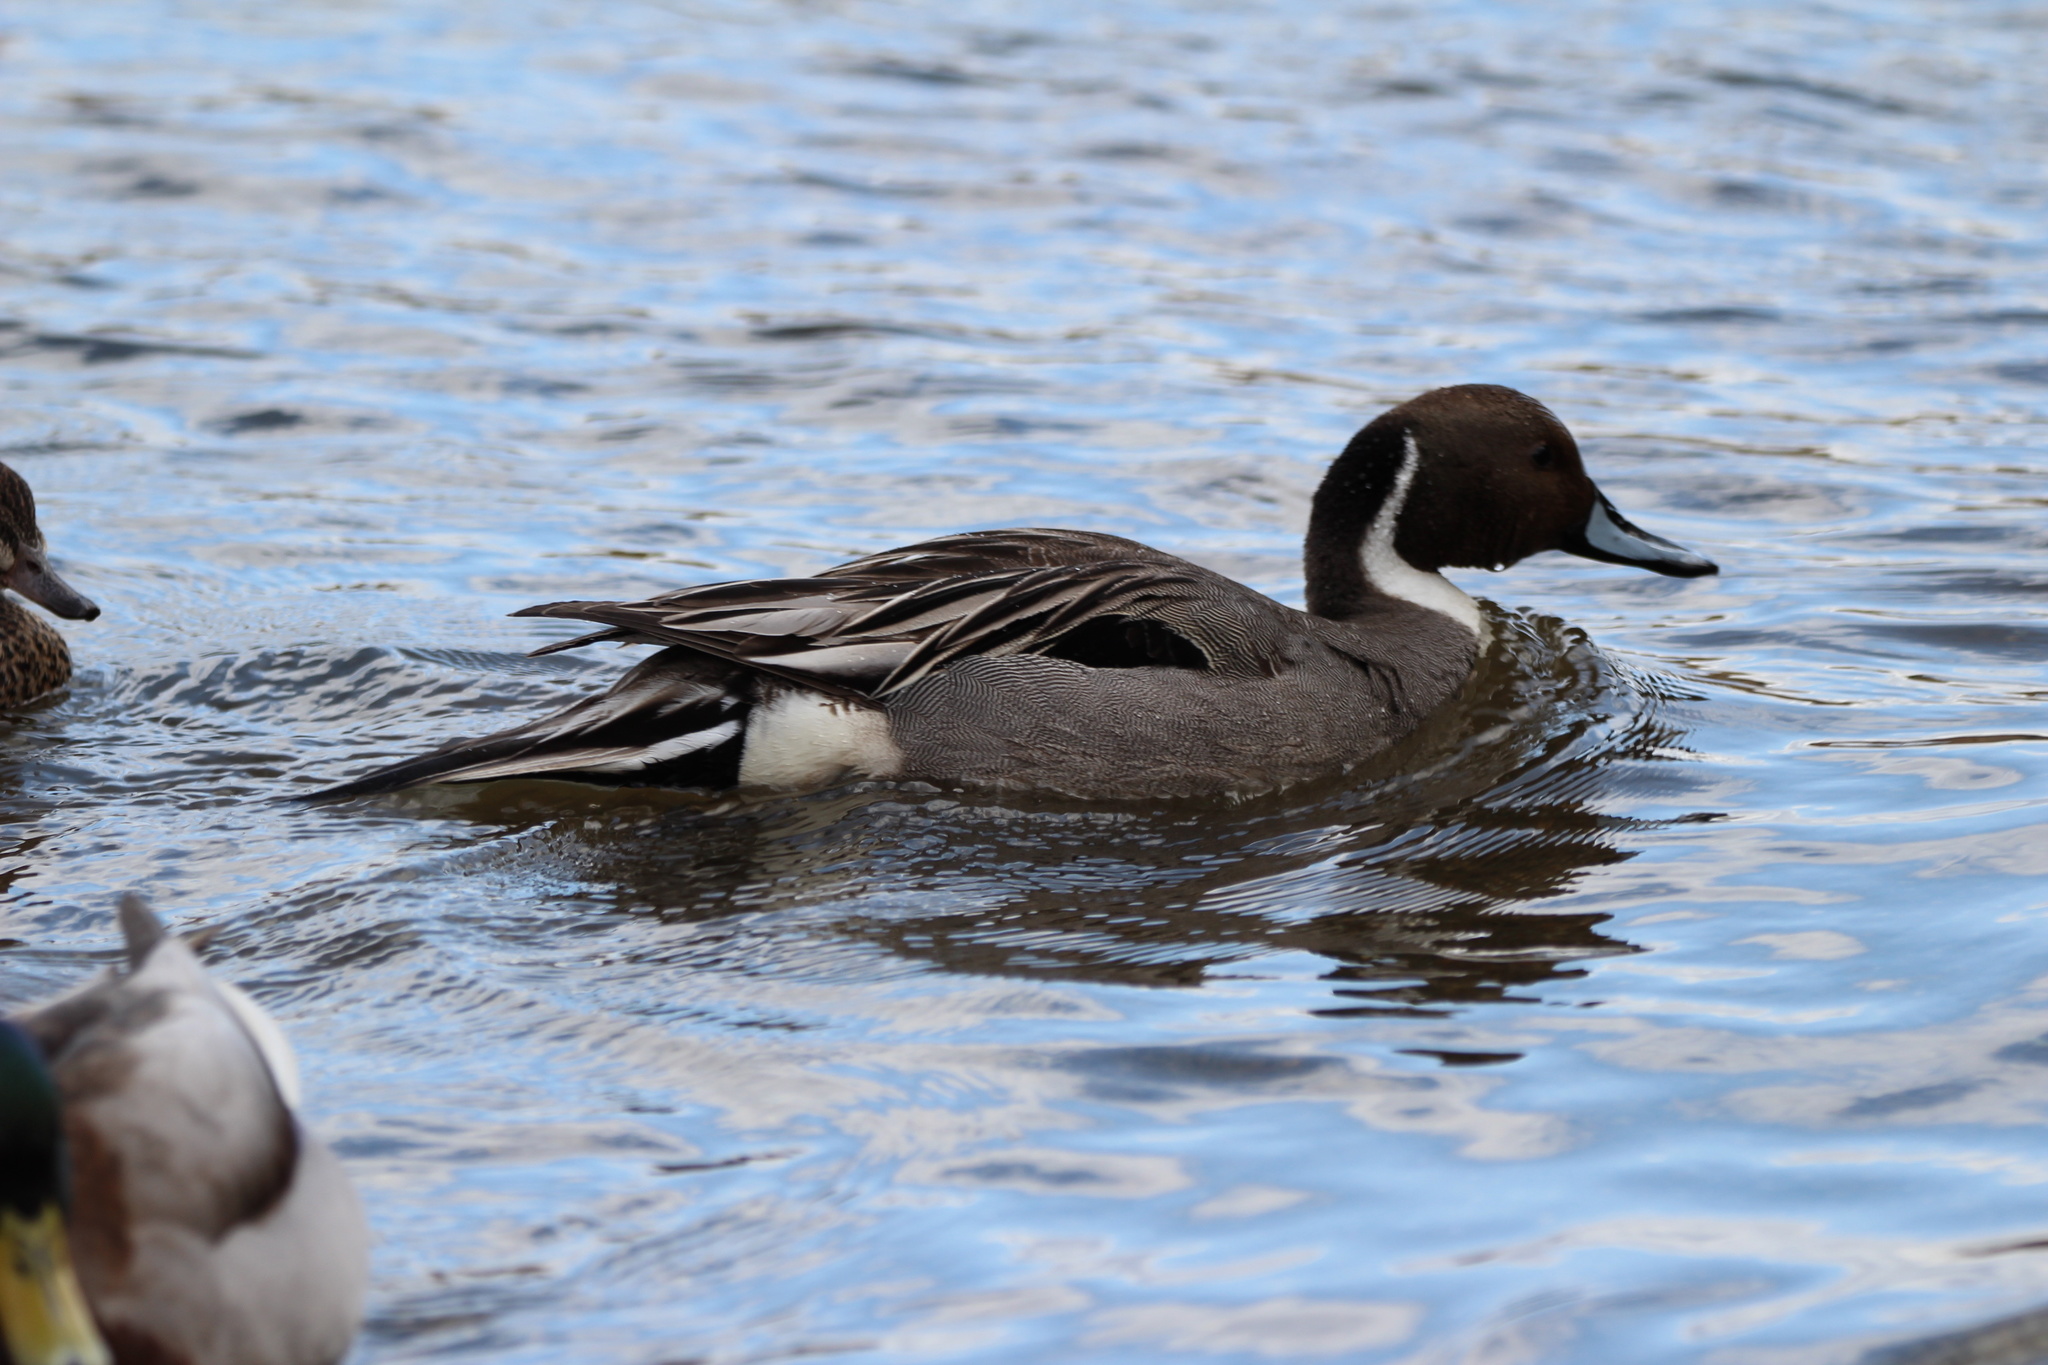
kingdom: Animalia
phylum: Chordata
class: Aves
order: Anseriformes
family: Anatidae
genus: Anas
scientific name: Anas acuta
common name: Northern pintail
